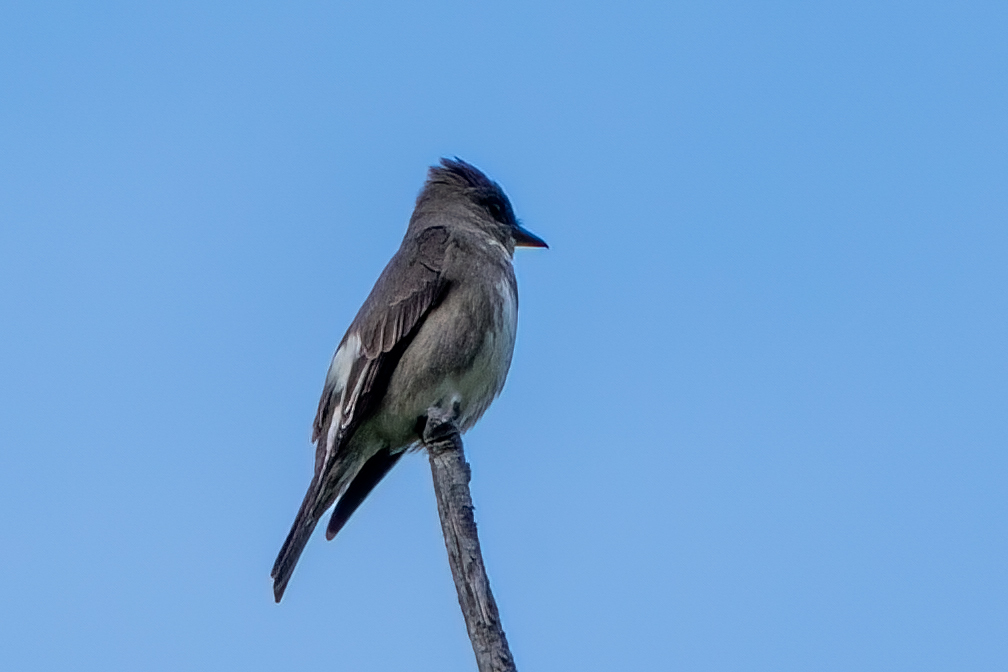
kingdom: Animalia
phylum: Chordata
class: Aves
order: Passeriformes
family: Tyrannidae
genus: Contopus
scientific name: Contopus cooperi
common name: Olive-sided flycatcher
